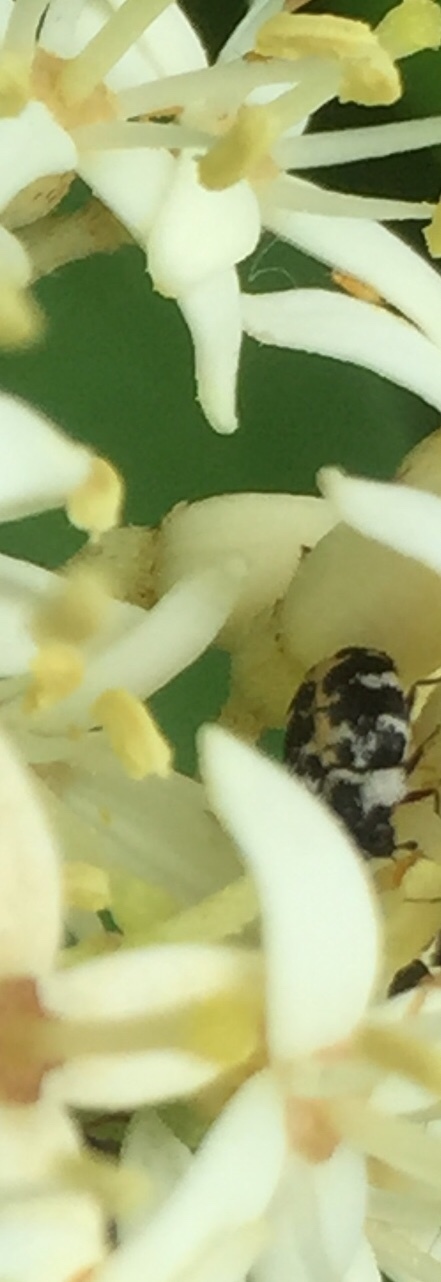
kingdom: Animalia
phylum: Arthropoda
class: Insecta
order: Coleoptera
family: Dermestidae
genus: Anthrenus
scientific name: Anthrenus scrophulariae
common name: Buffalo carpet beetle
